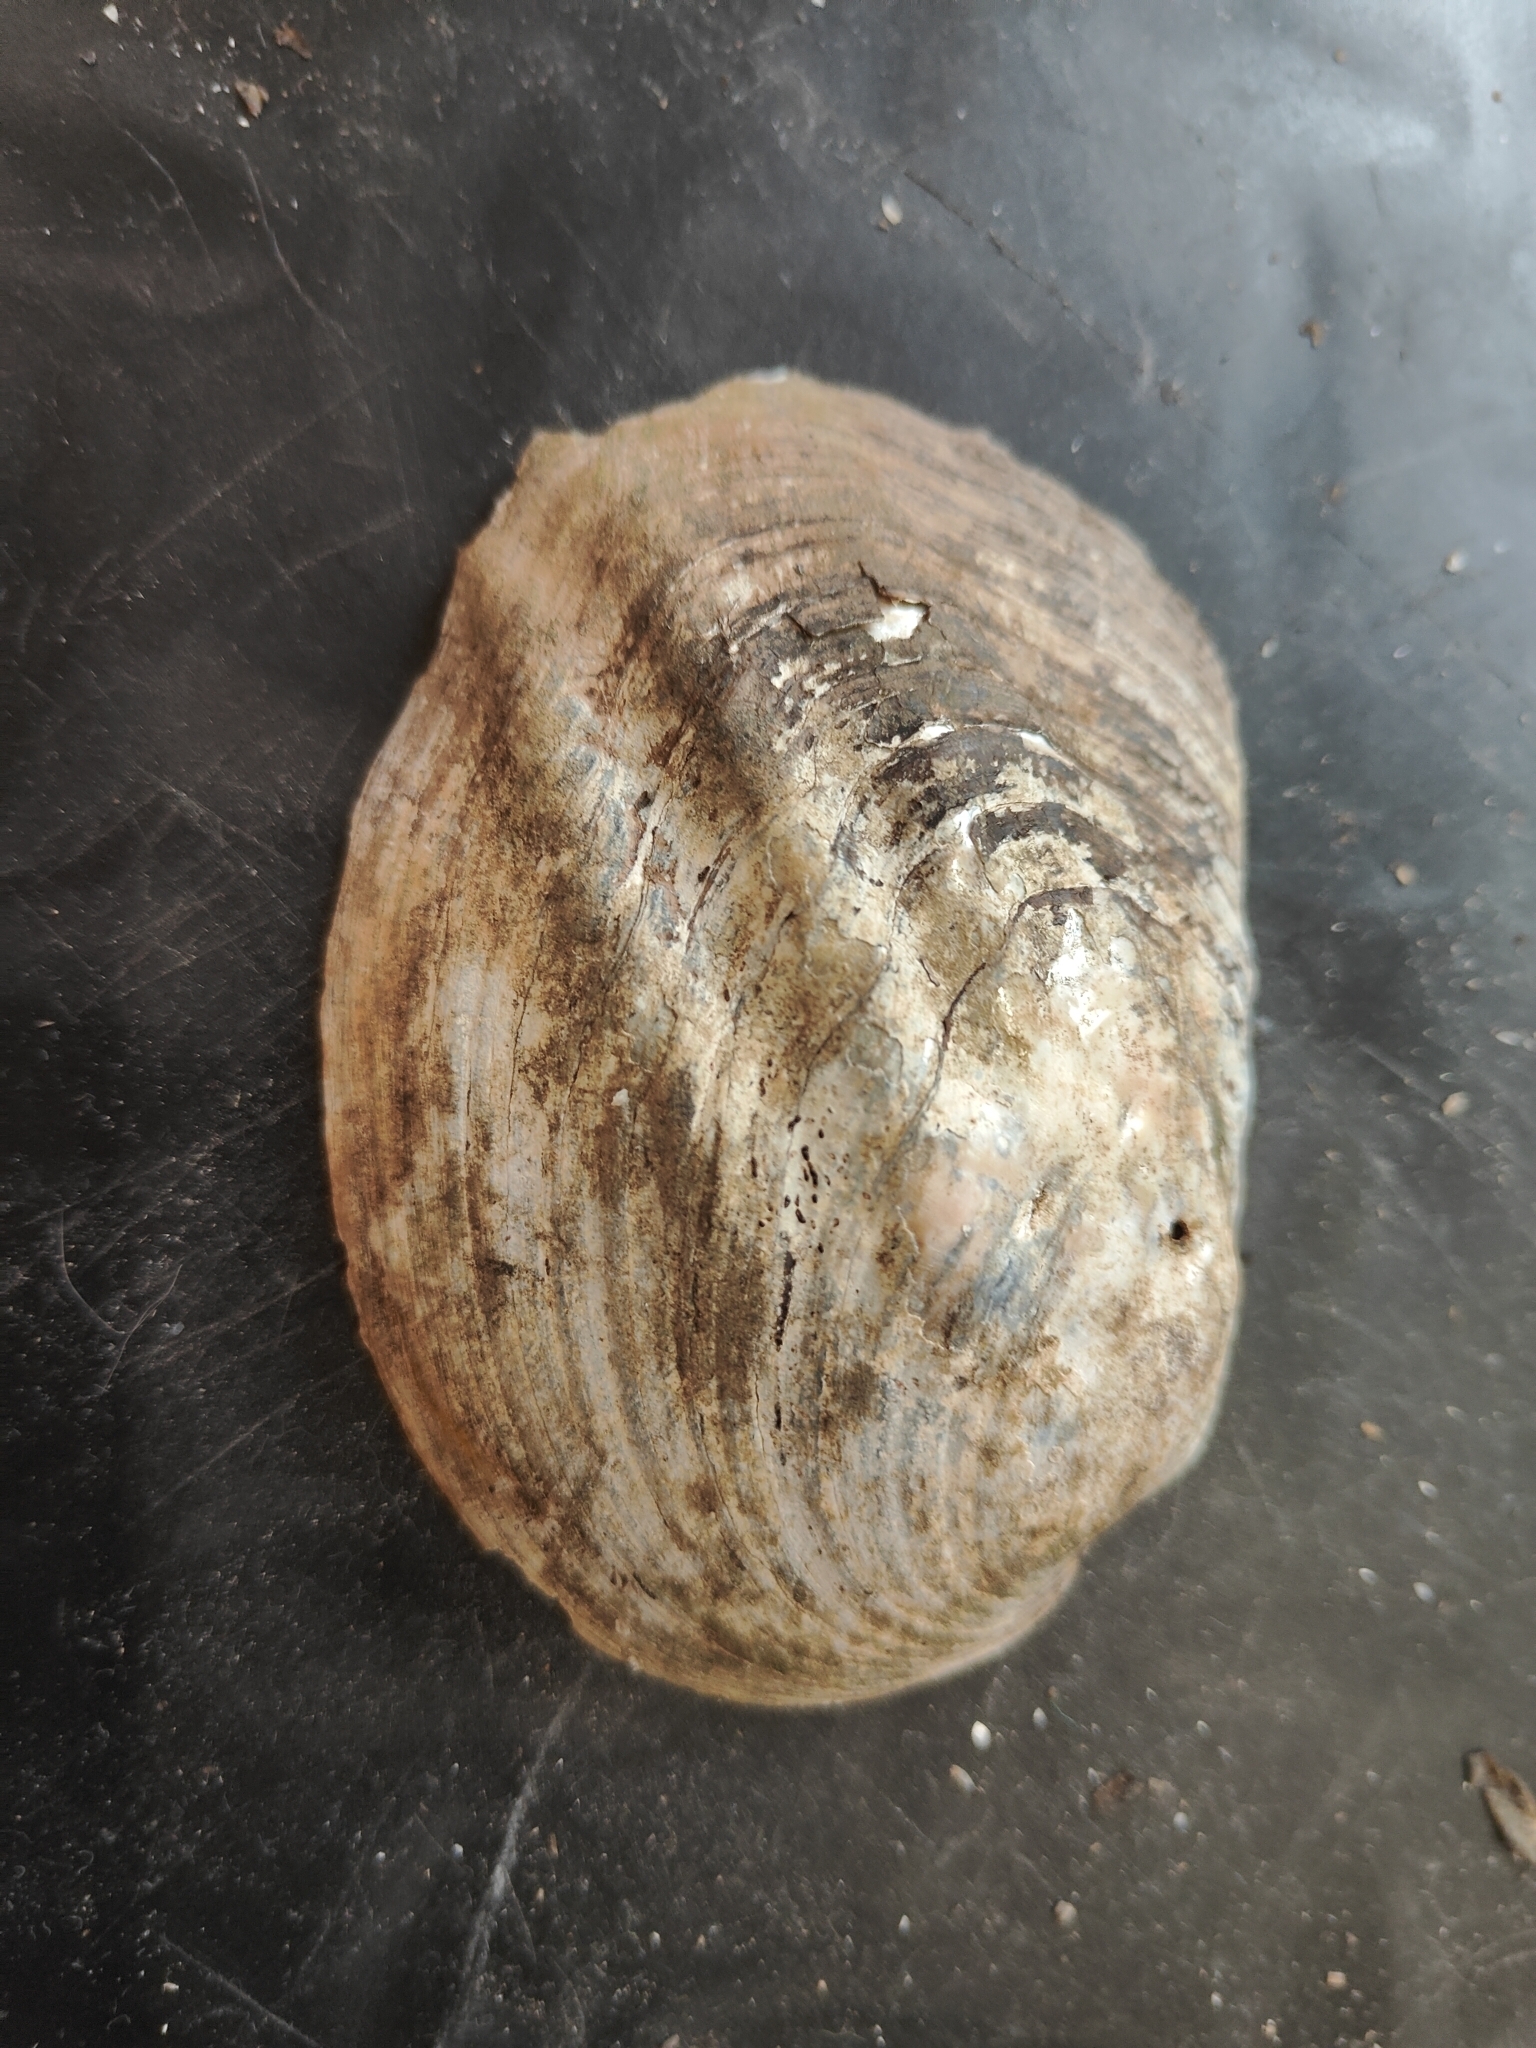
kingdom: Animalia
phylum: Mollusca
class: Bivalvia
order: Unionida
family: Unionidae
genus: Amblema
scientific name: Amblema plicata
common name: Threeridge
